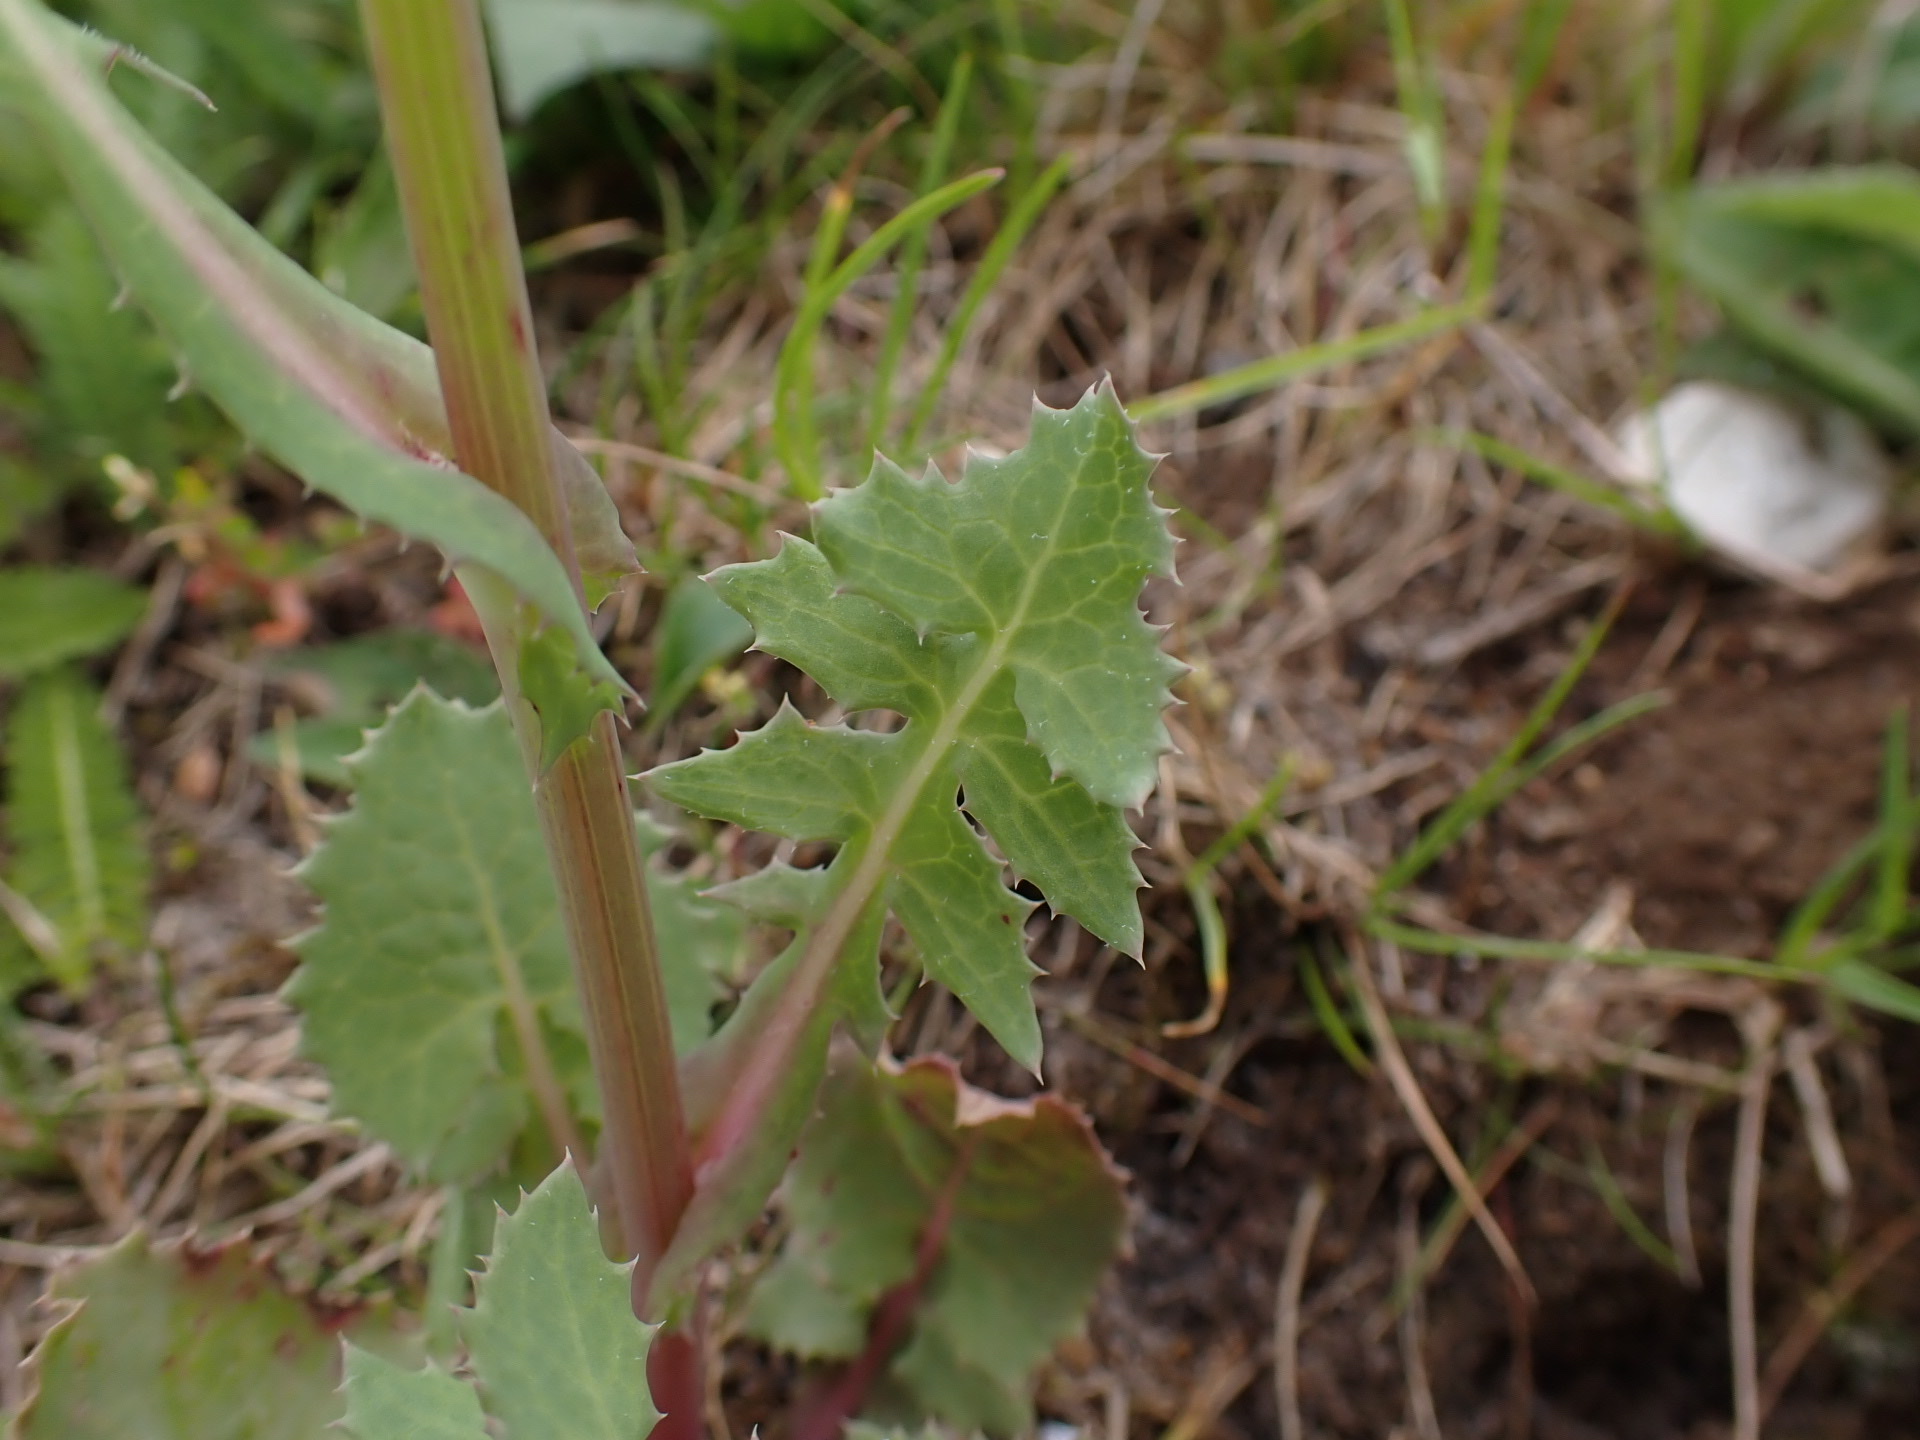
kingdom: Plantae
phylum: Tracheophyta
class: Magnoliopsida
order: Asterales
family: Asteraceae
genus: Sonchus
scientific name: Sonchus oleraceus
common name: Common sowthistle
